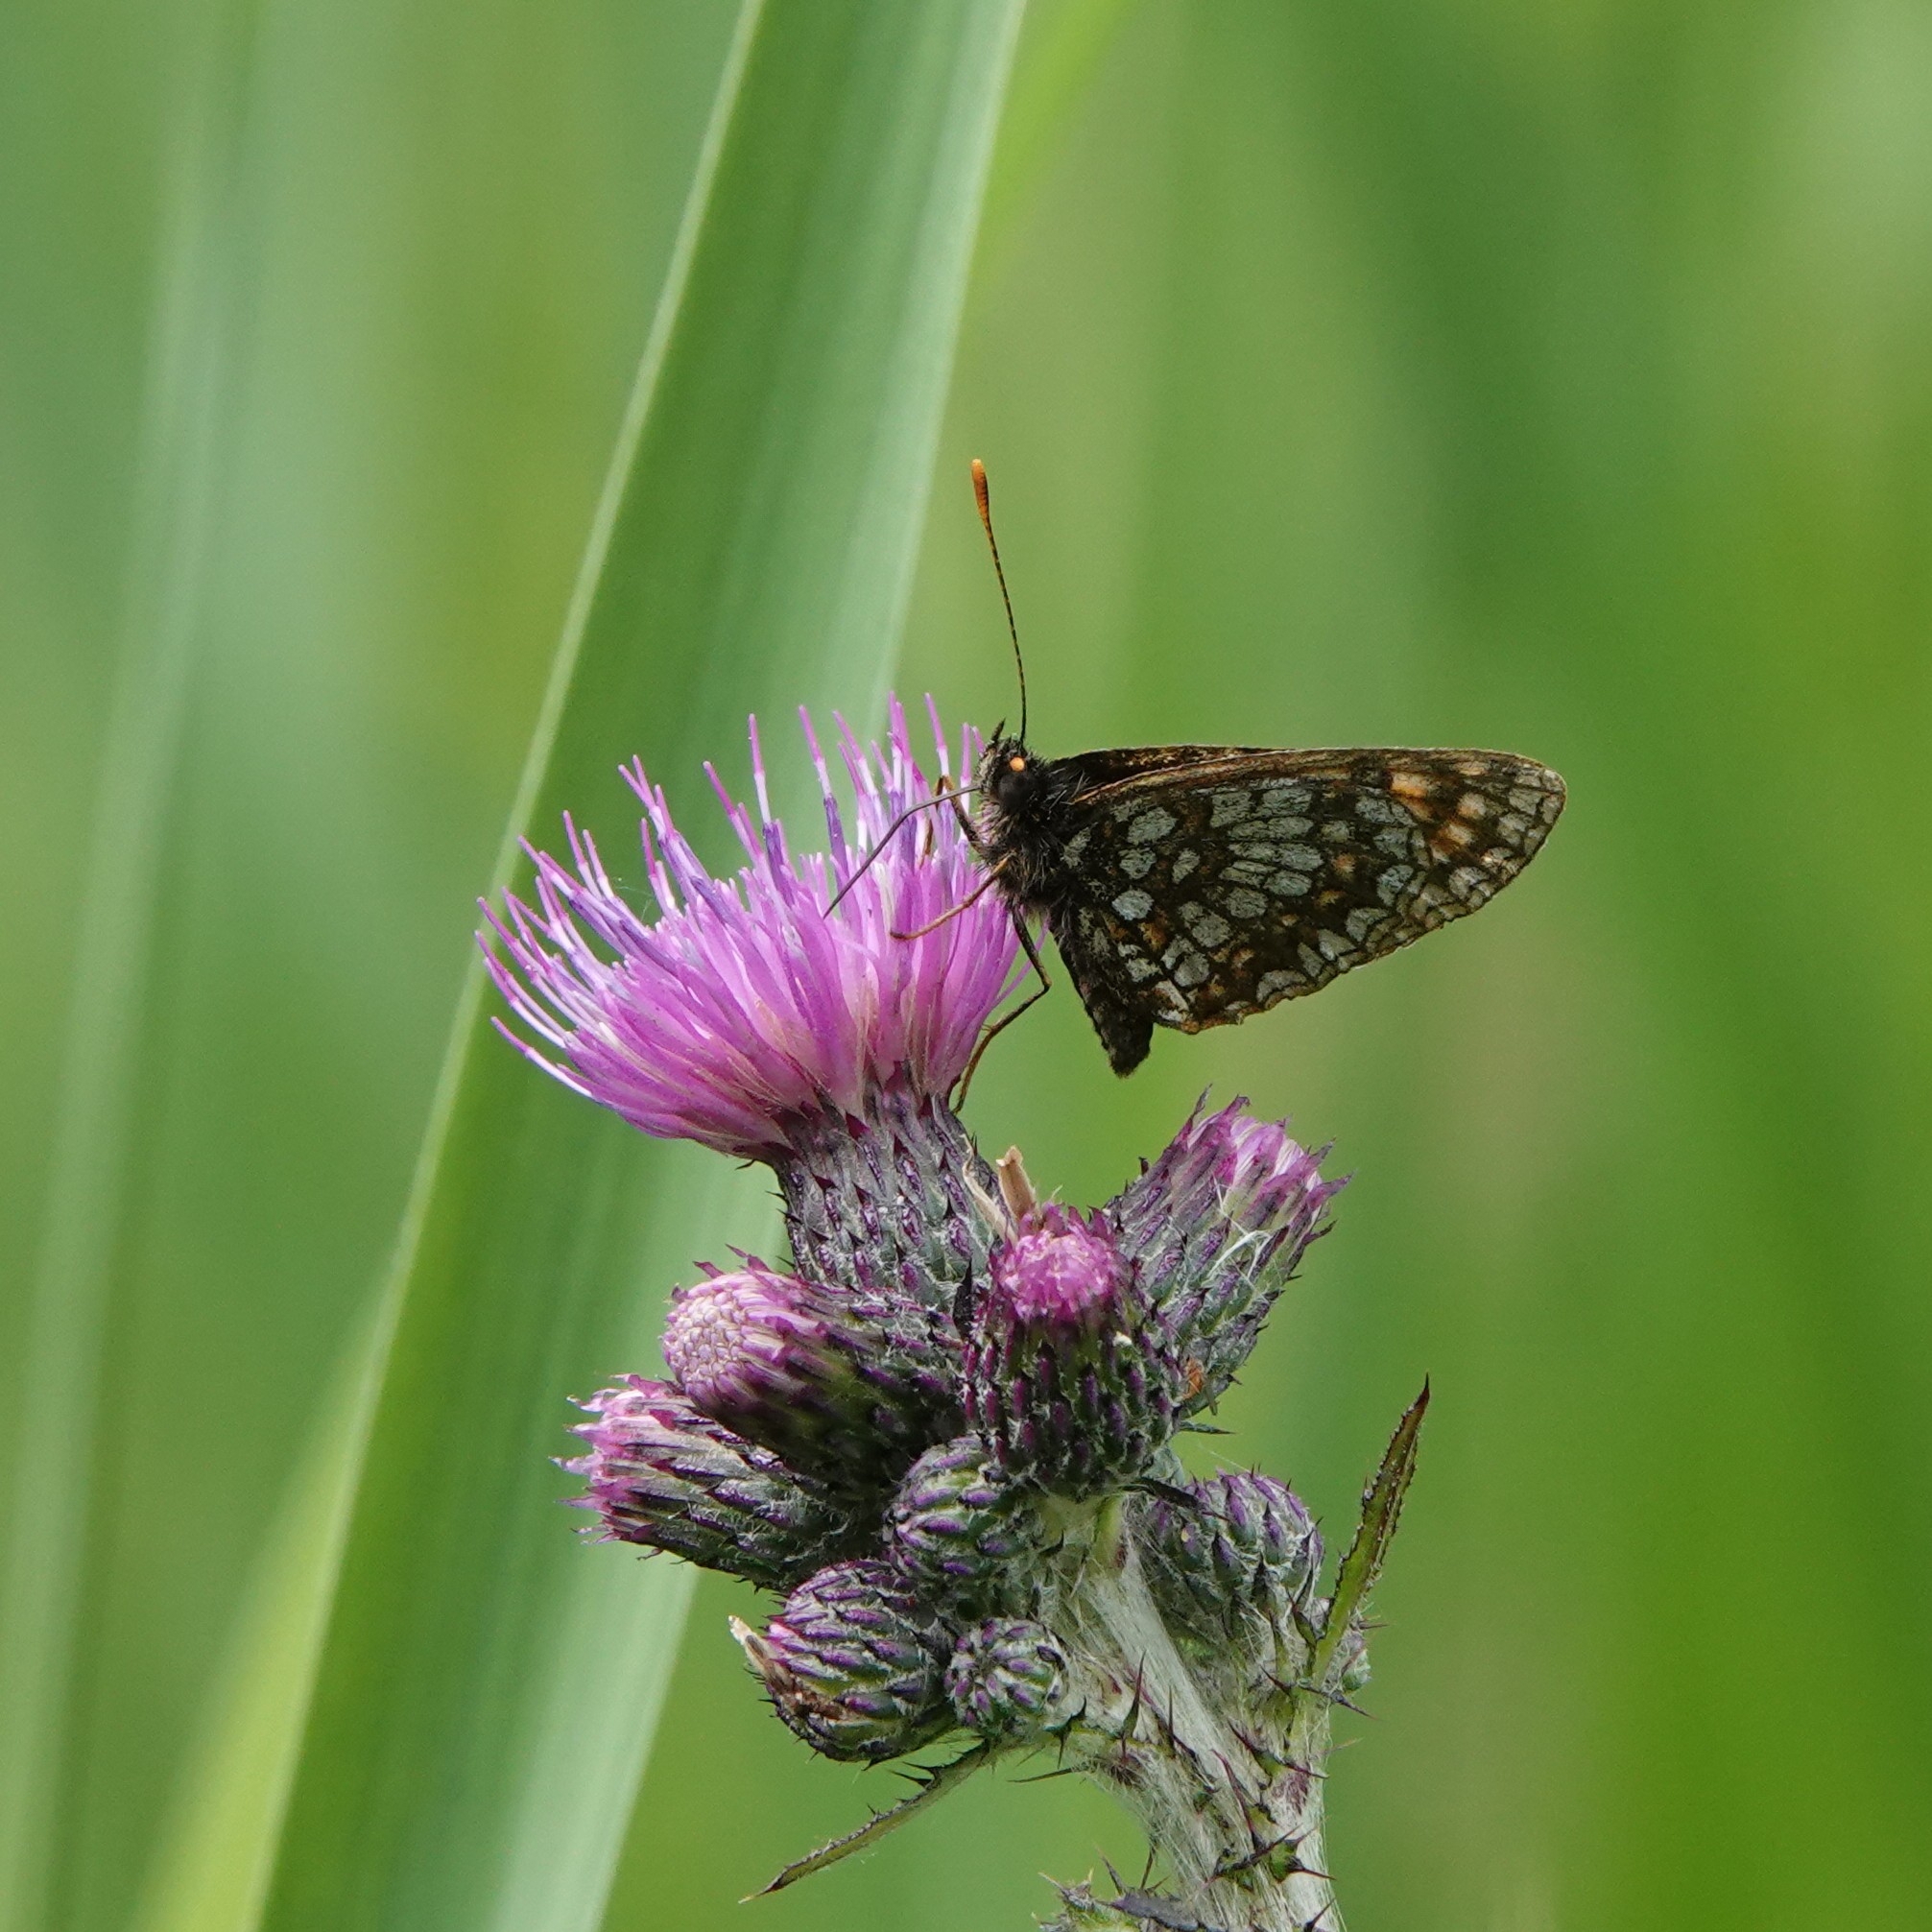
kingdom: Animalia
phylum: Arthropoda
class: Insecta
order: Lepidoptera
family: Nymphalidae
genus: Melitaea
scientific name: Melitaea diamina
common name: False heath fritillary
